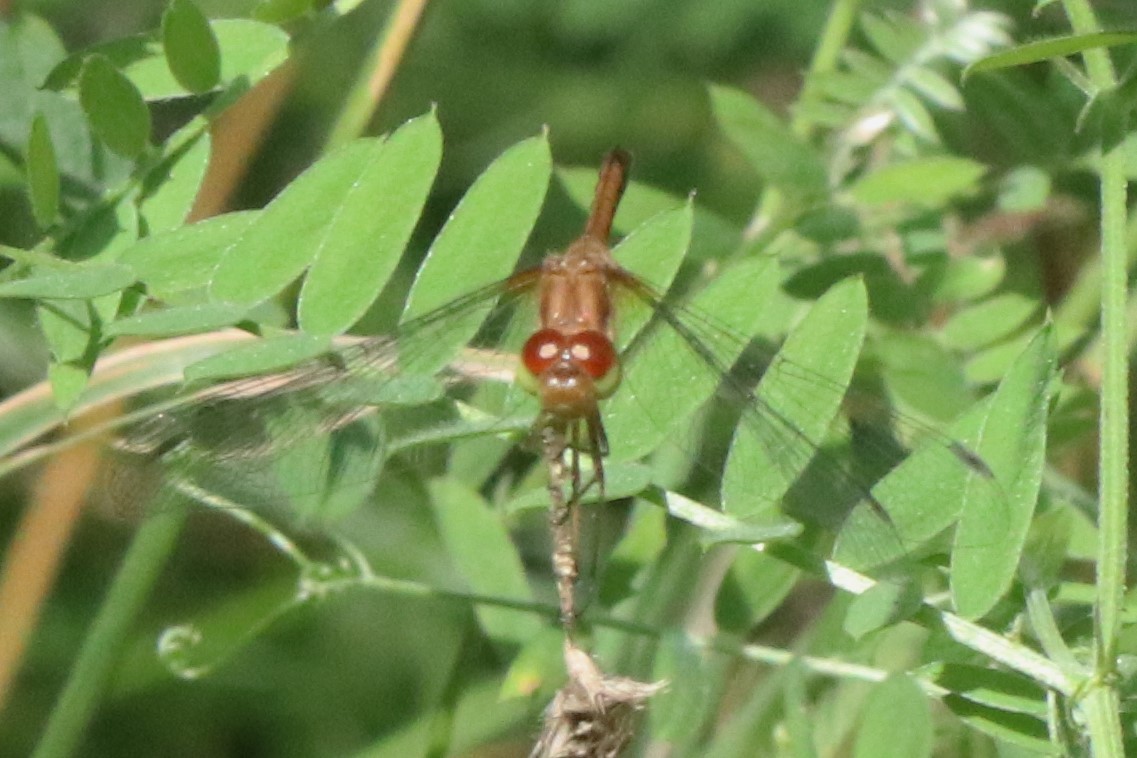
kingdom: Animalia
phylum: Arthropoda
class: Insecta
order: Odonata
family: Libellulidae
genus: Sympetrum
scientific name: Sympetrum vicinum
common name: Autumn meadowhawk
